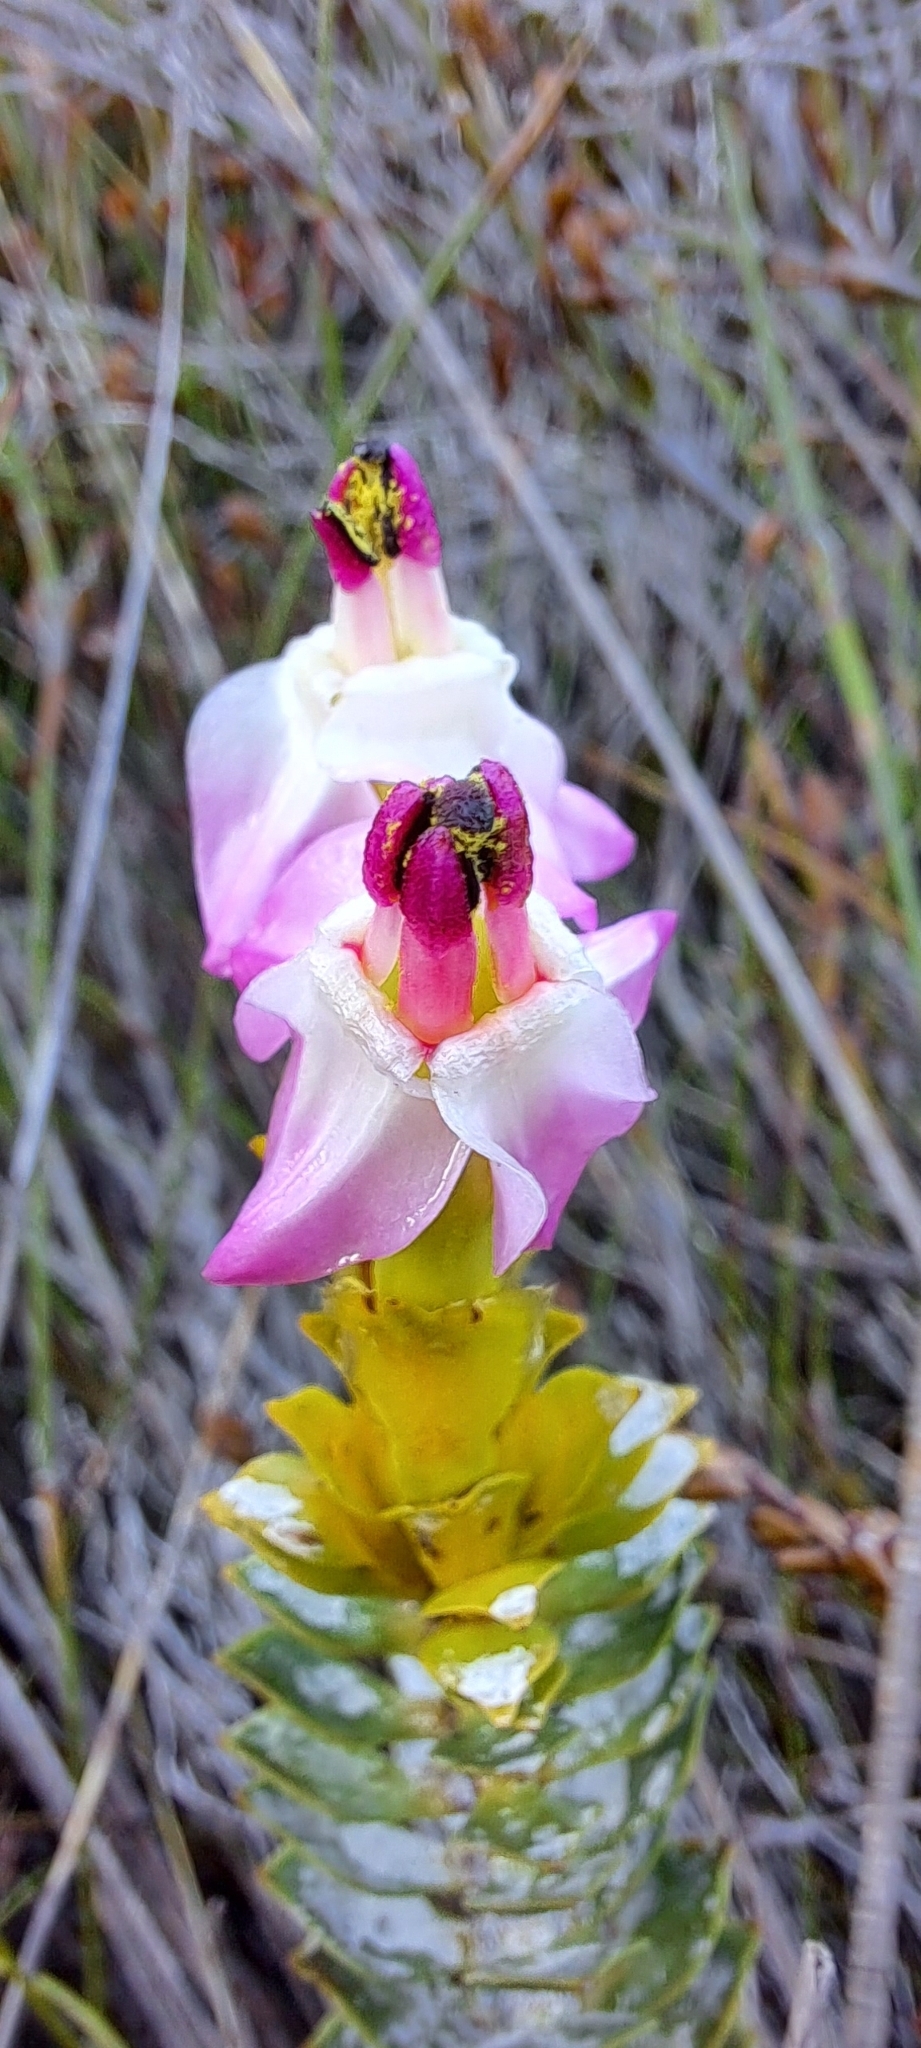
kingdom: Plantae
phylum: Tracheophyta
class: Magnoliopsida
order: Myrtales
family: Penaeaceae
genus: Saltera
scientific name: Saltera sarcocolla
